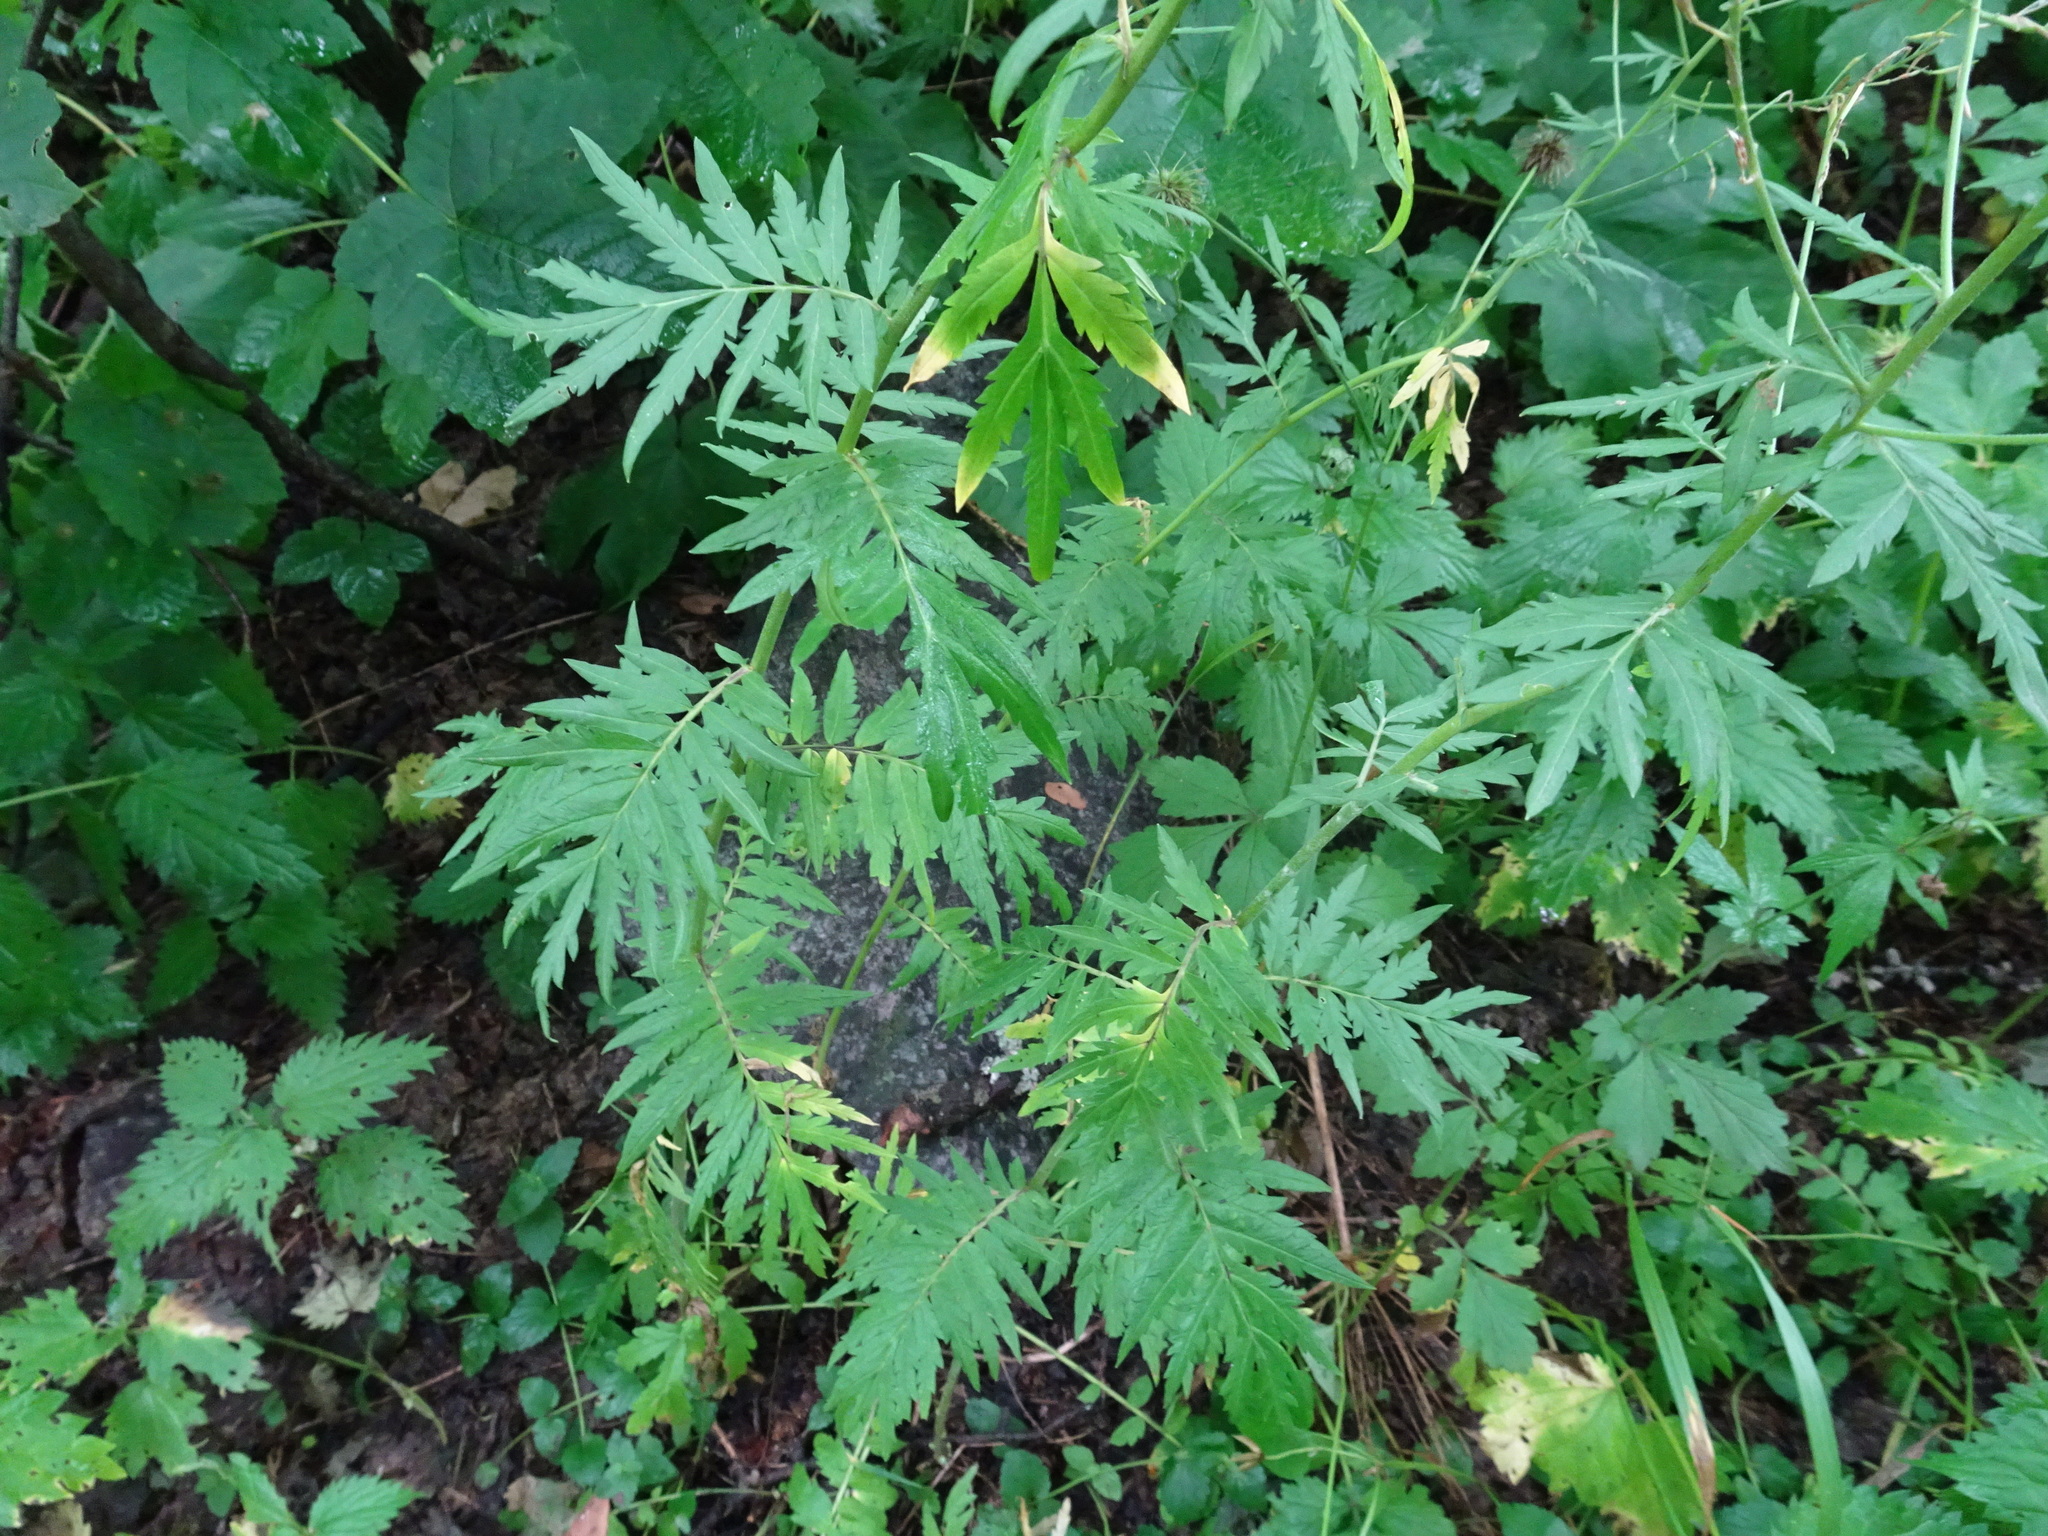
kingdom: Plantae
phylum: Tracheophyta
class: Magnoliopsida
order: Brassicales
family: Brassicaceae
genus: Descurainia
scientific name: Descurainia tanacetifolia
